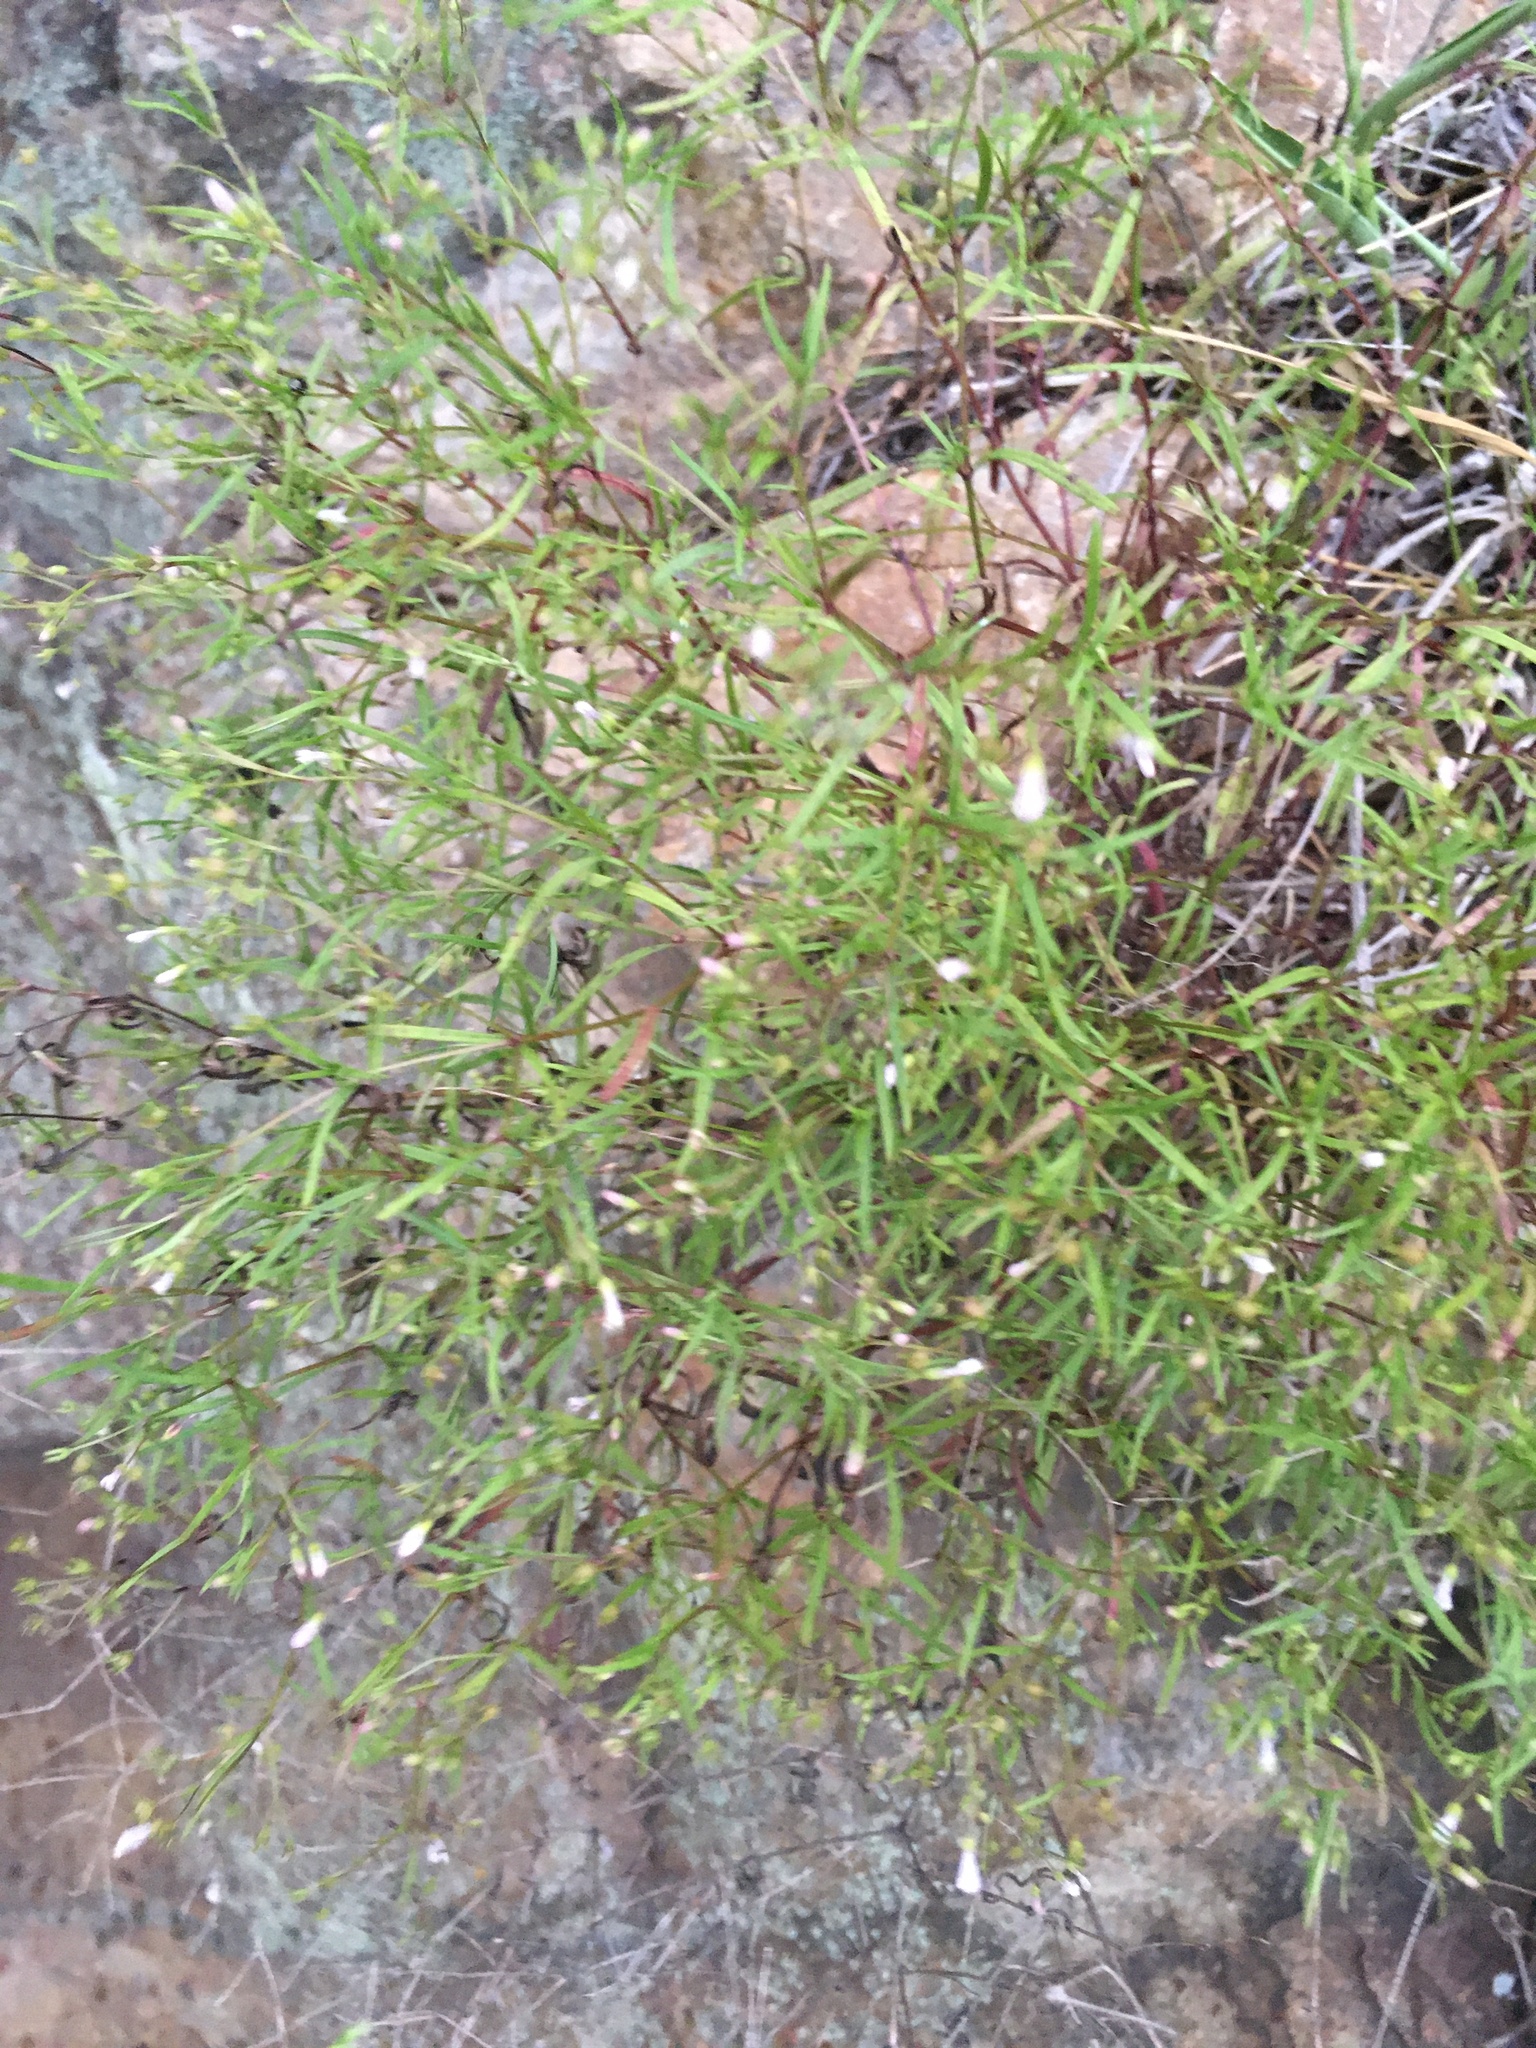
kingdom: Plantae
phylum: Tracheophyta
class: Magnoliopsida
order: Gentianales
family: Rubiaceae
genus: Houstonia
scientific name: Houstonia longifolia
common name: Long-leaved bluets
